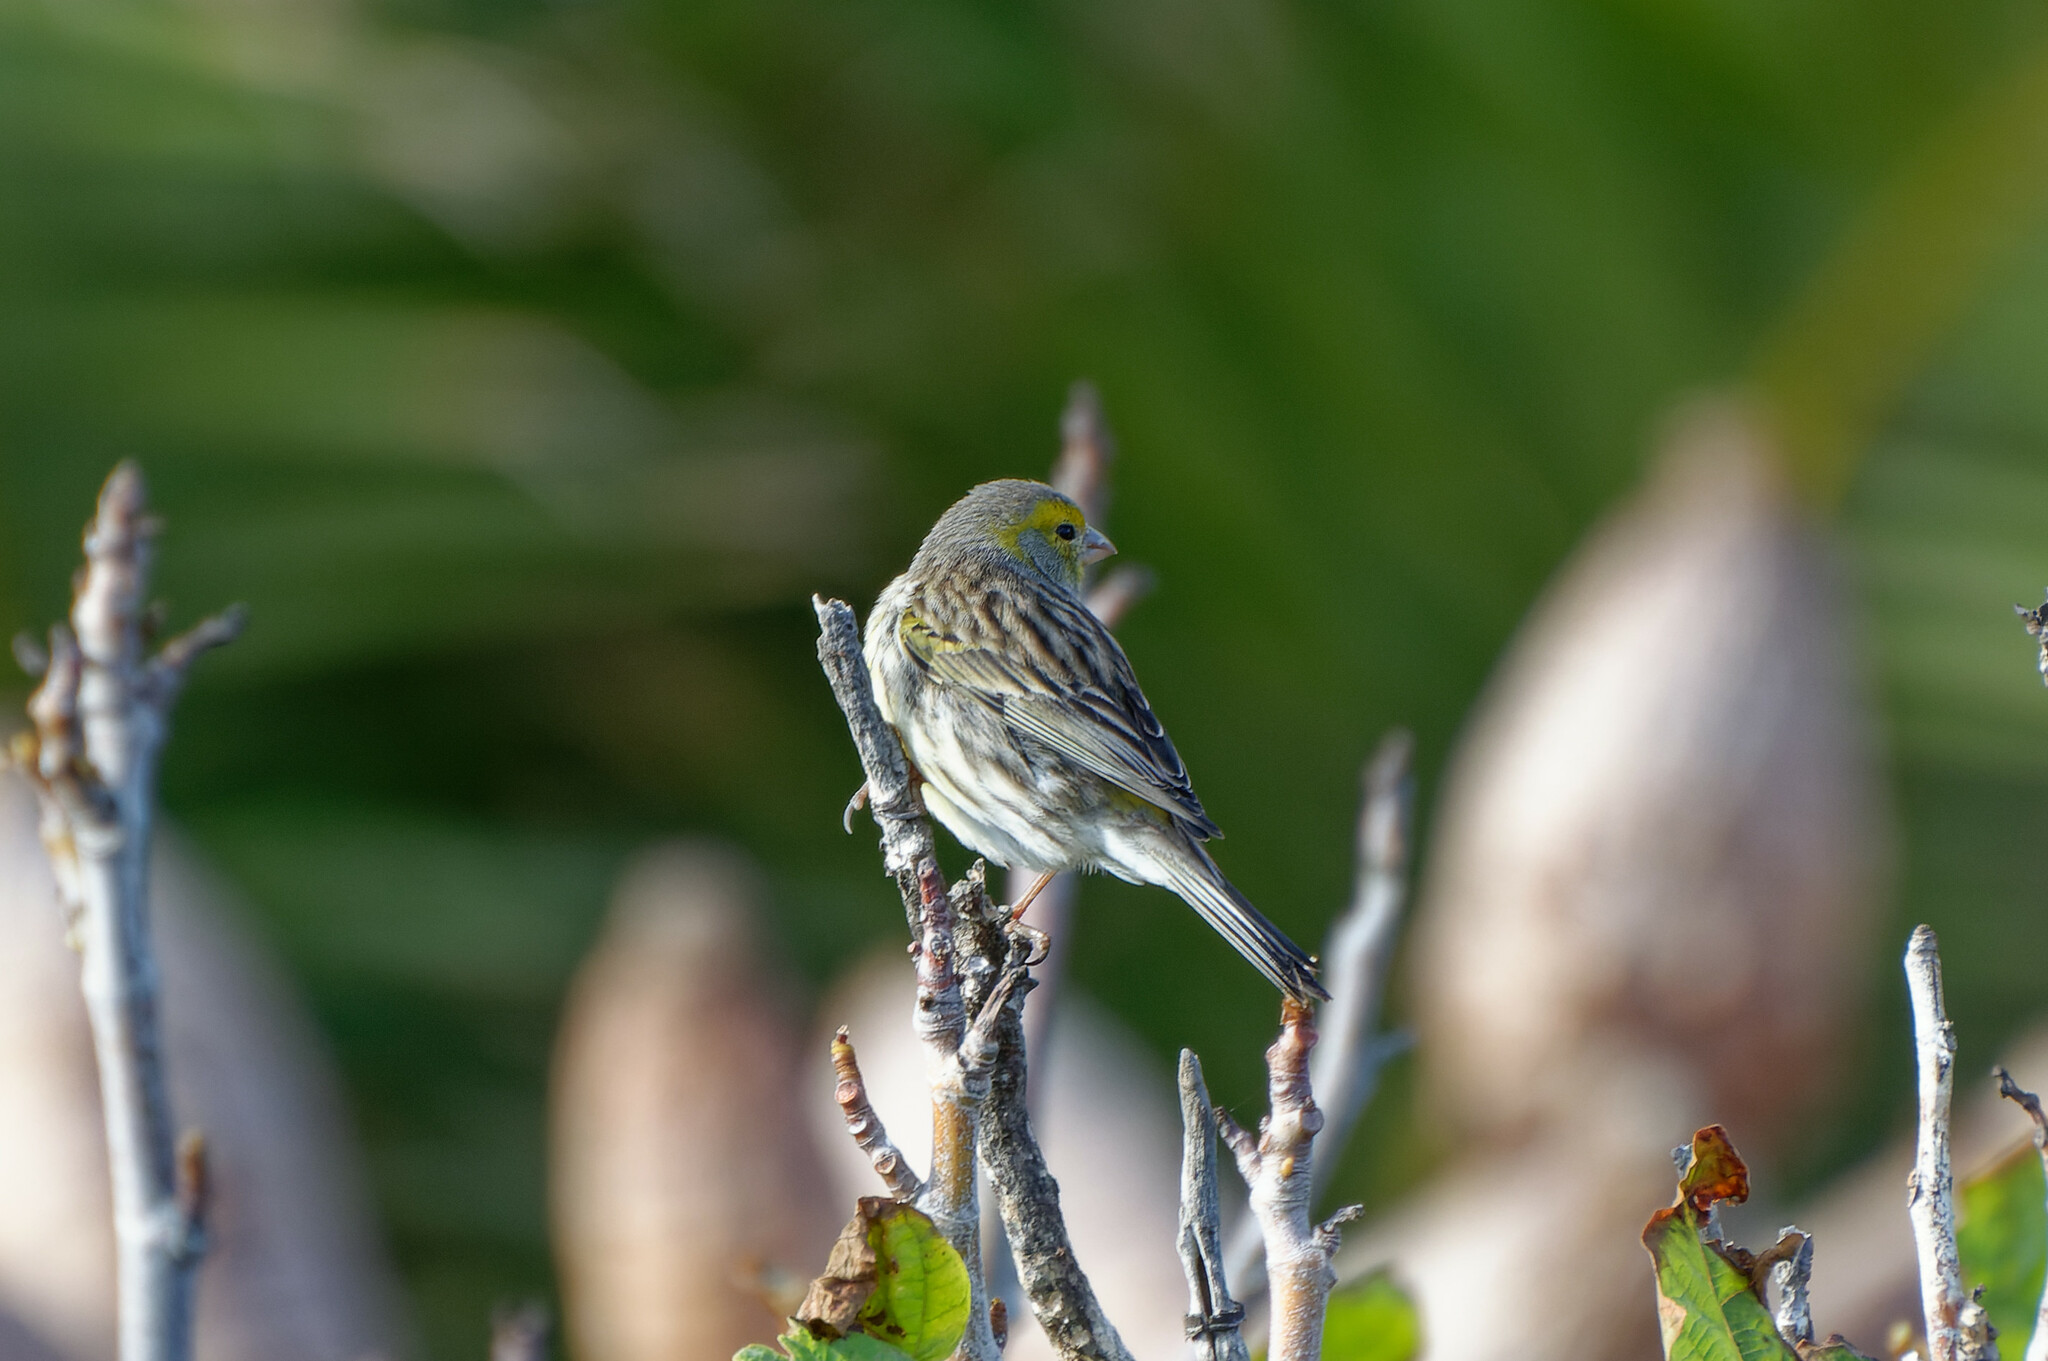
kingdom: Animalia
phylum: Chordata
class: Aves
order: Passeriformes
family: Fringillidae
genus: Serinus
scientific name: Serinus canaria
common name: Atlantic canary
